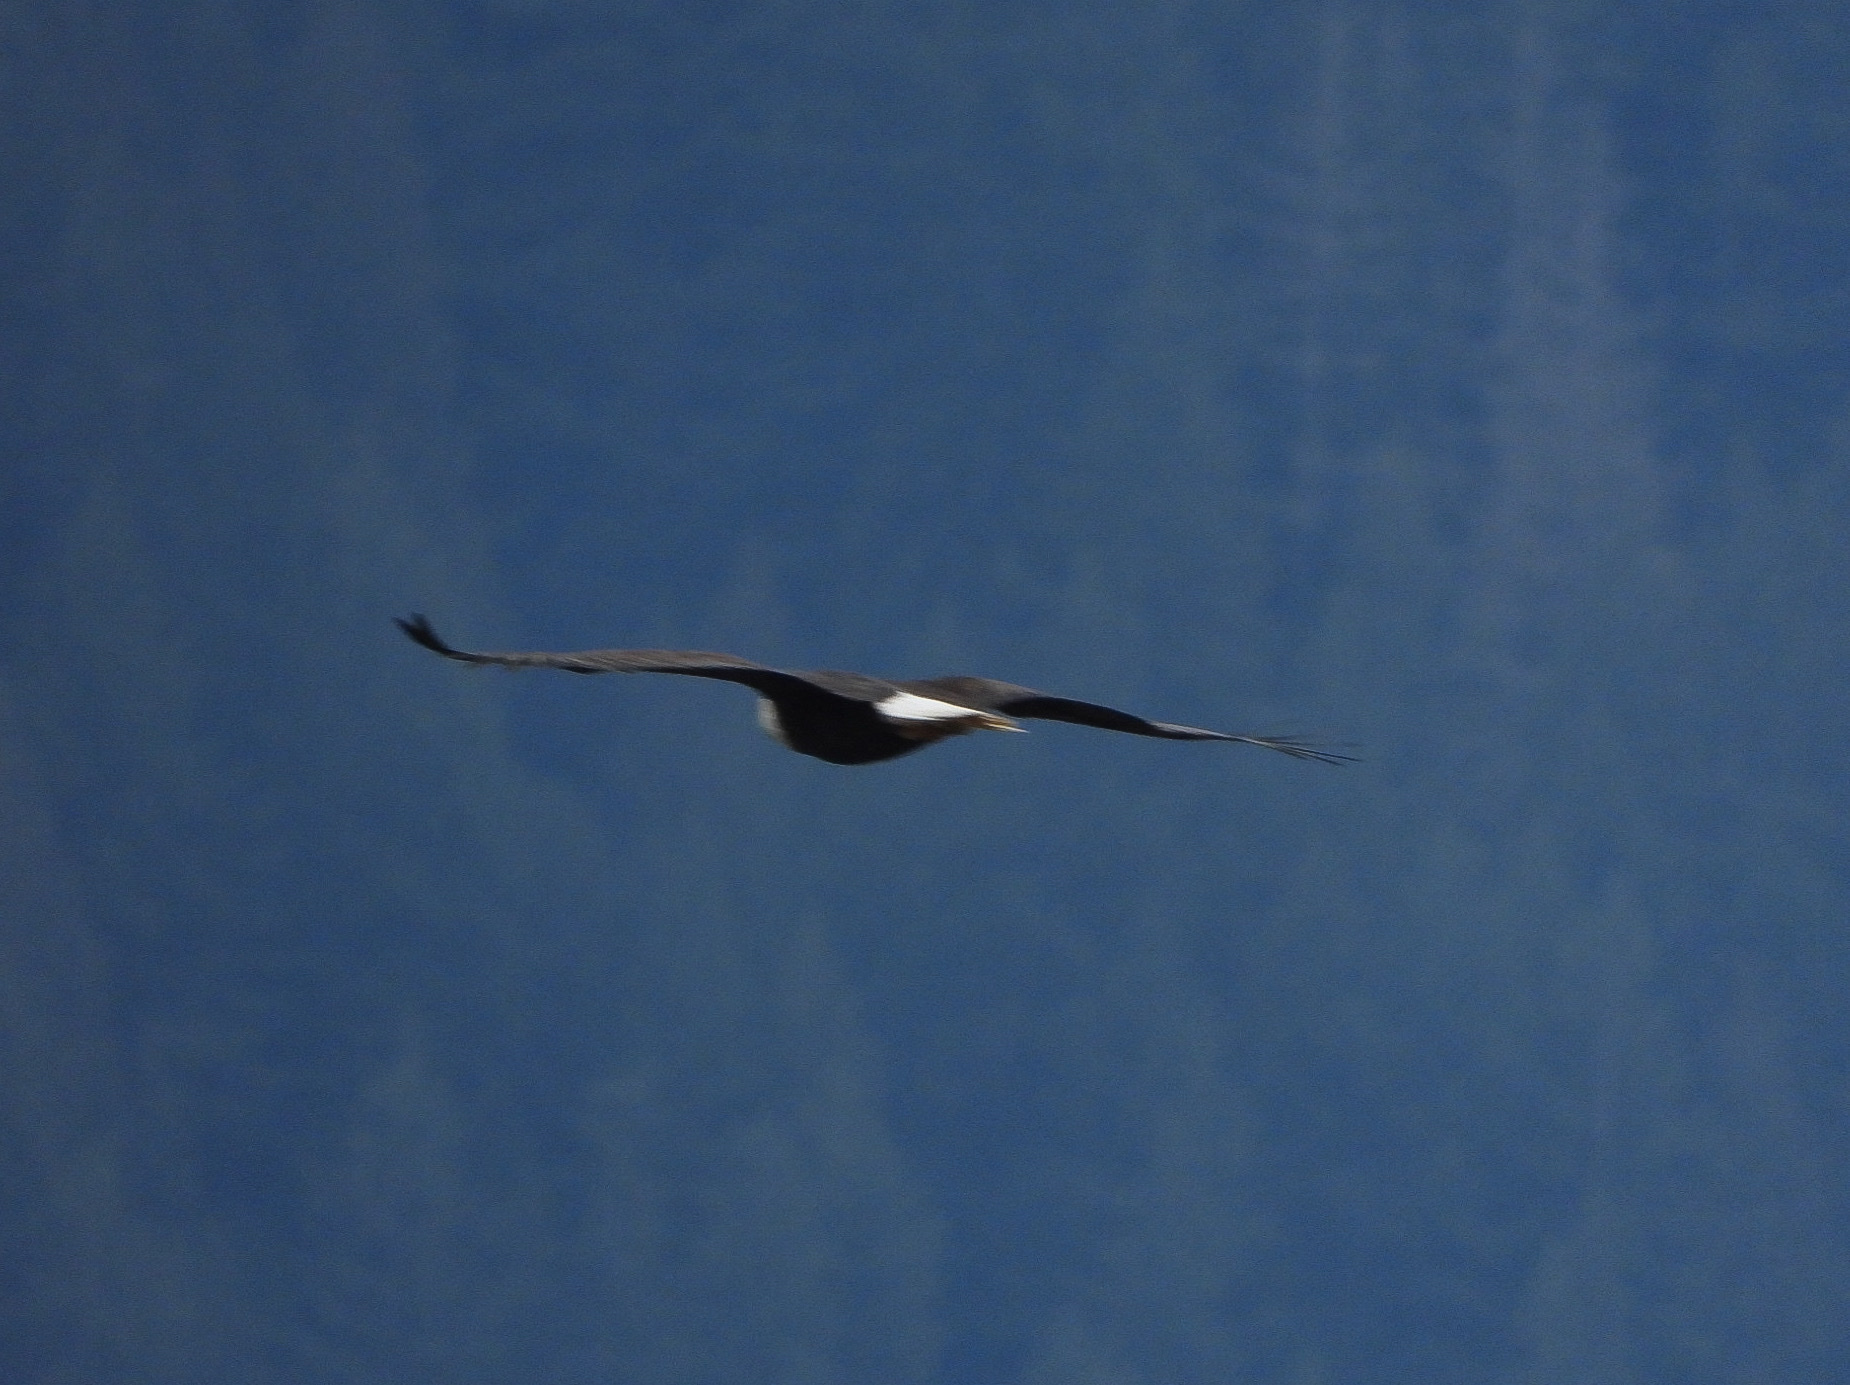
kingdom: Animalia
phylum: Chordata
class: Aves
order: Accipitriformes
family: Accipitridae
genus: Haliaeetus
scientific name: Haliaeetus leucocephalus
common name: Bald eagle
